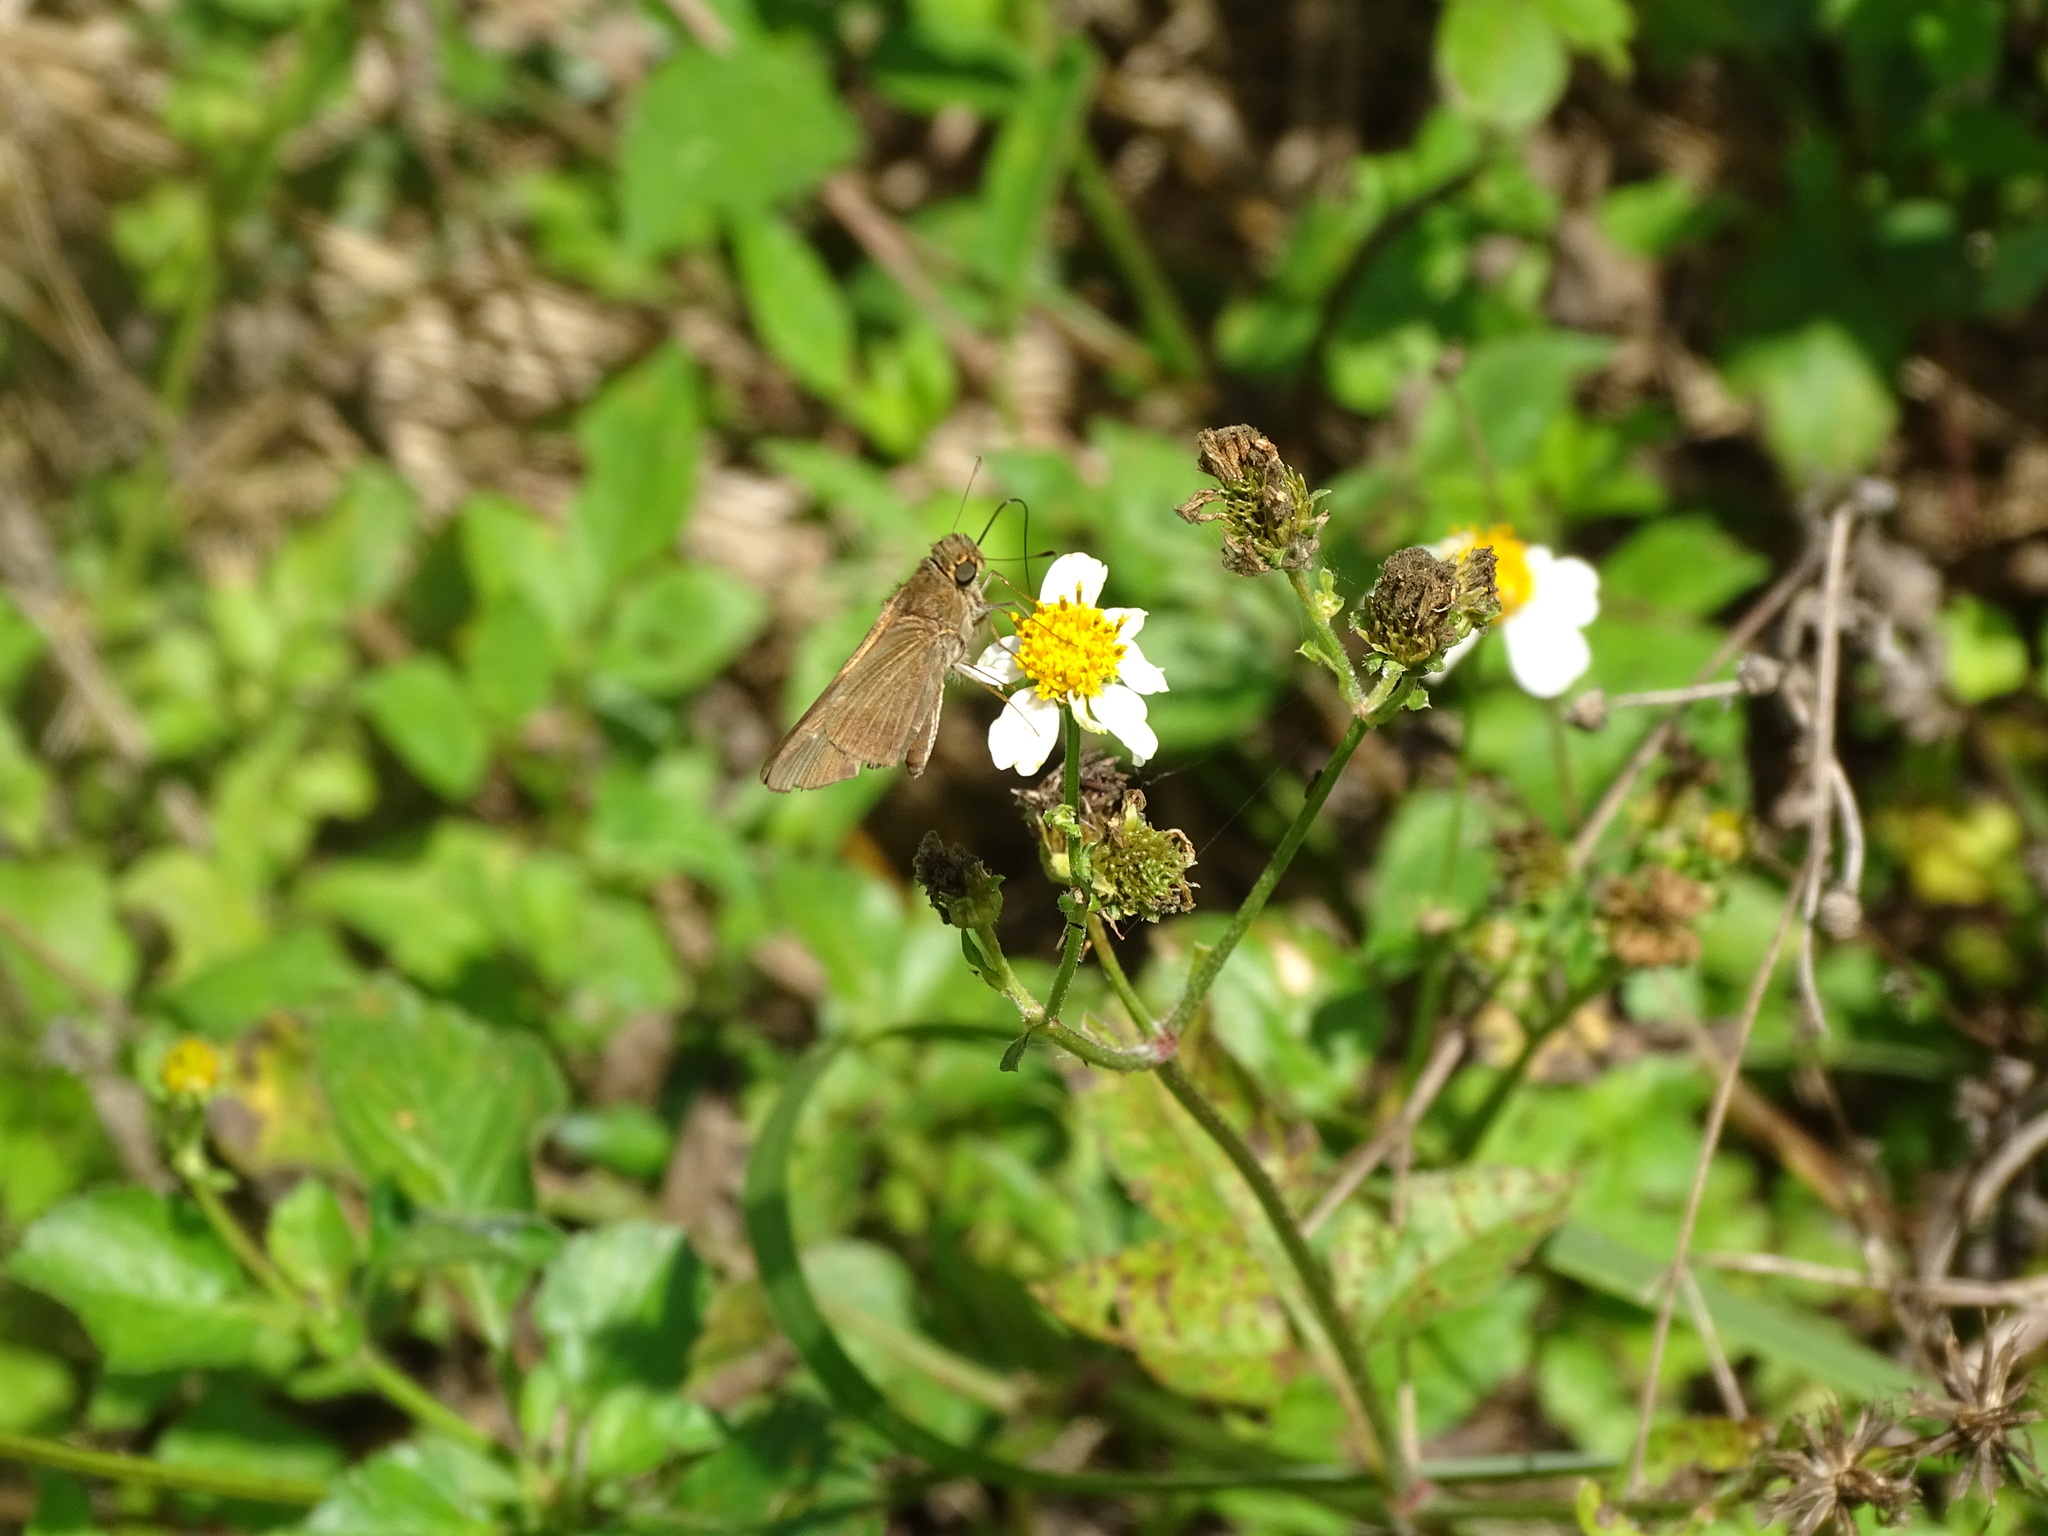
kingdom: Animalia
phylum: Arthropoda
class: Insecta
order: Lepidoptera
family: Hesperiidae
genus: Panoquina
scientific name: Panoquina ocola
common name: Ocola skipper
